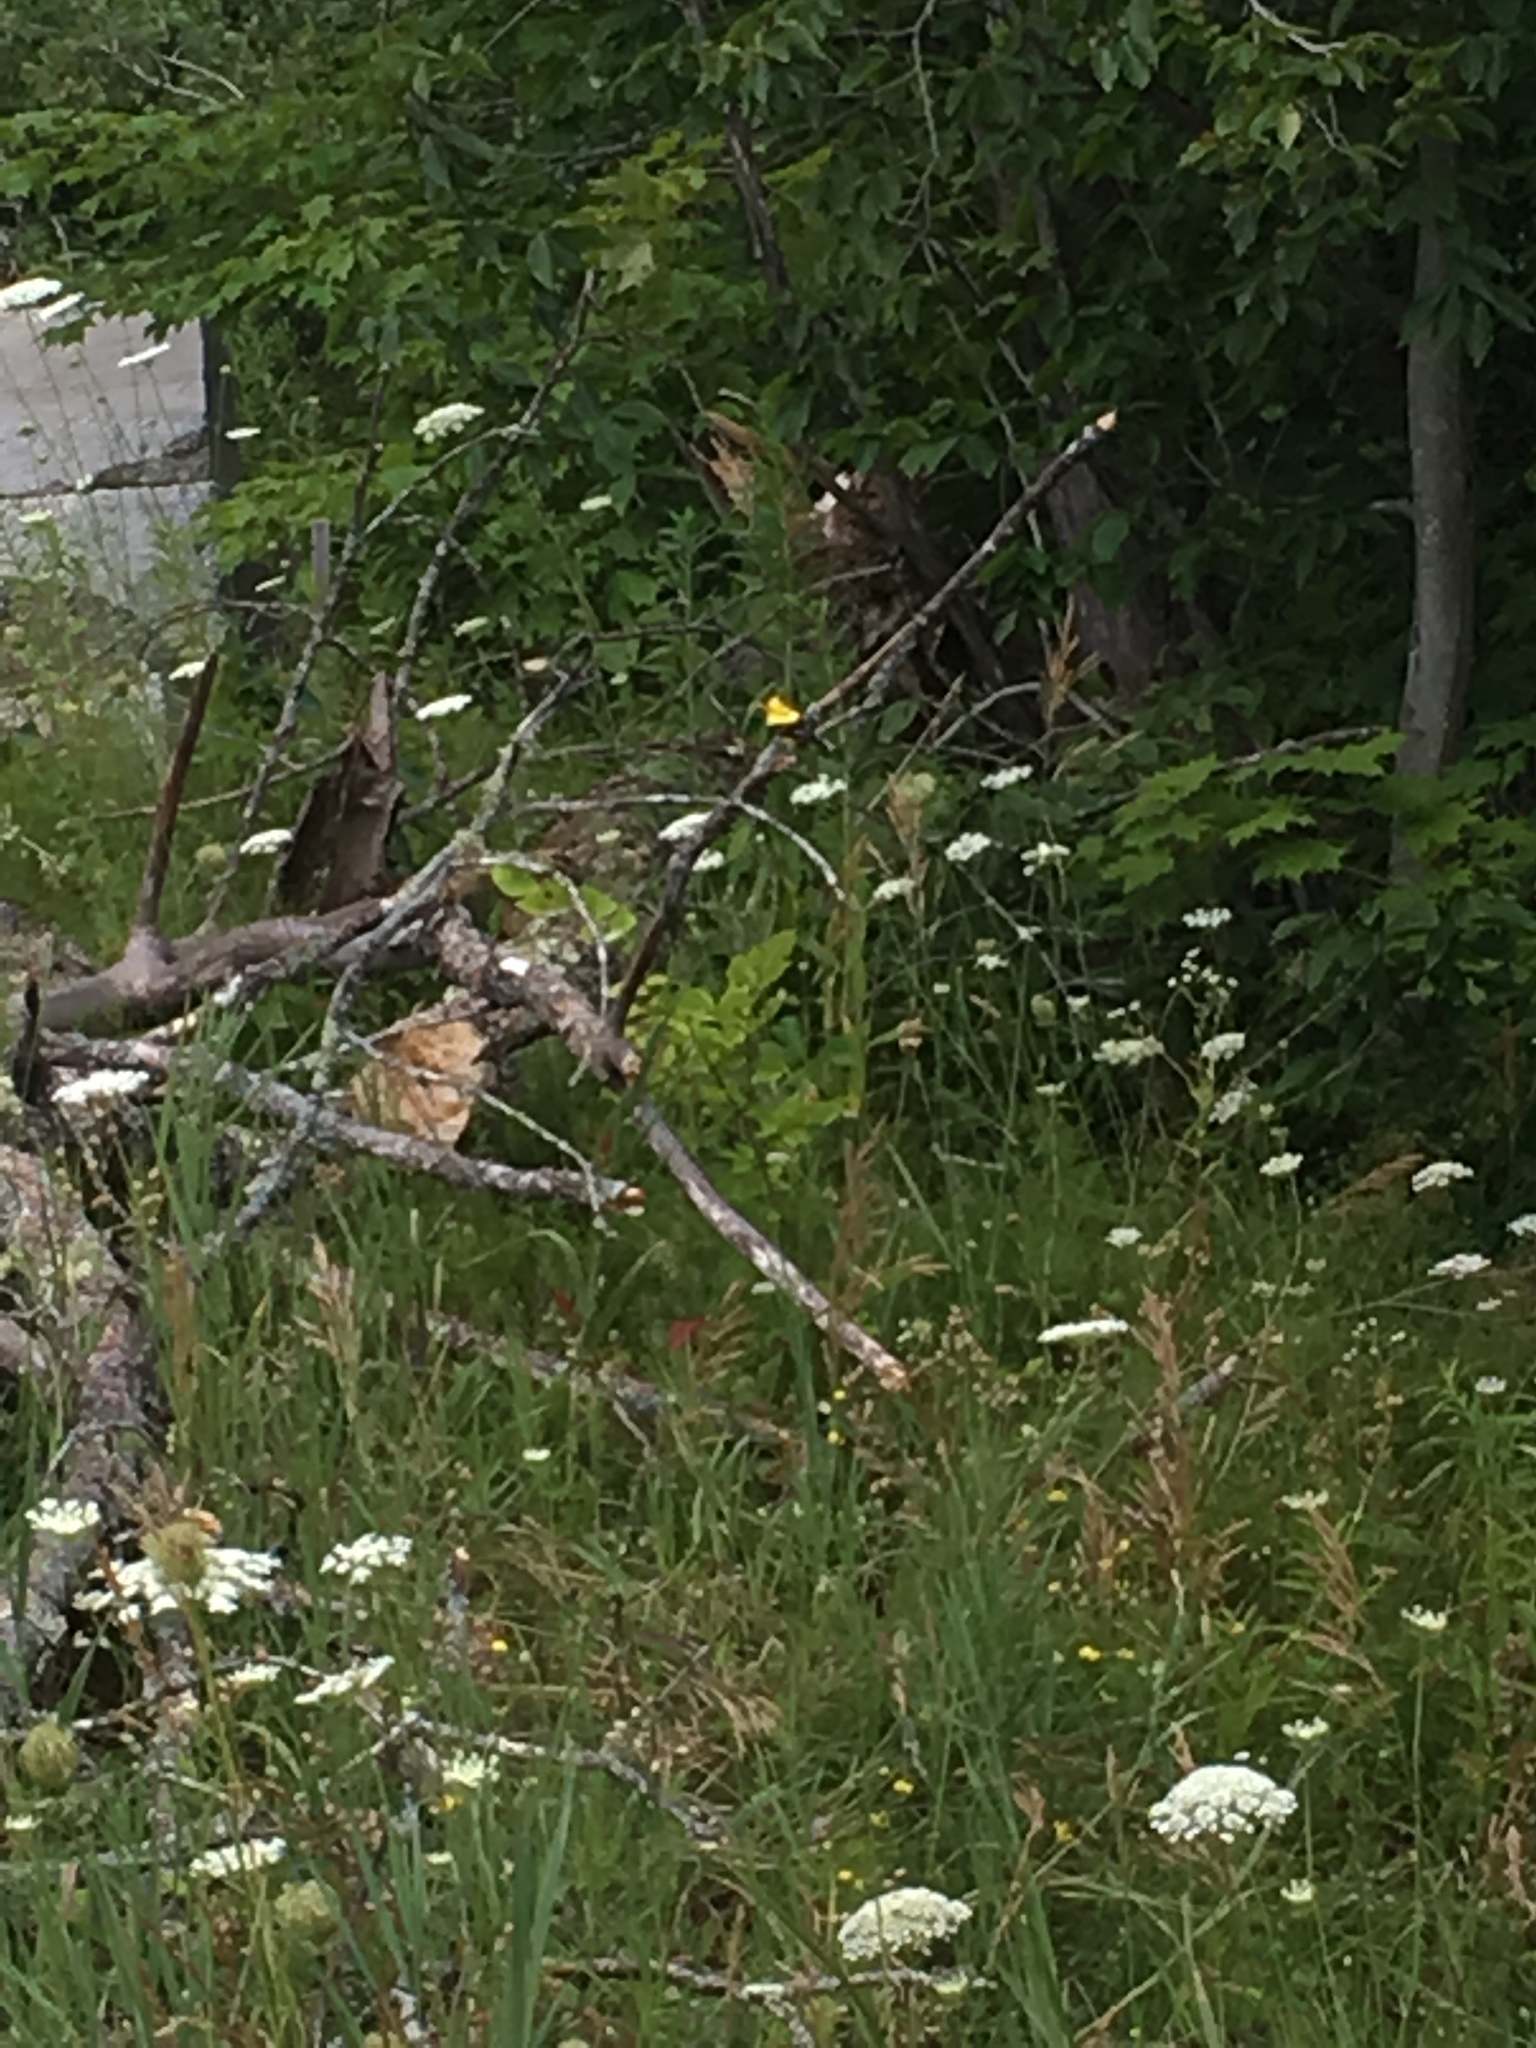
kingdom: Animalia
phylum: Chordata
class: Aves
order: Passeriformes
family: Fringillidae
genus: Spinus
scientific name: Spinus tristis
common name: American goldfinch
